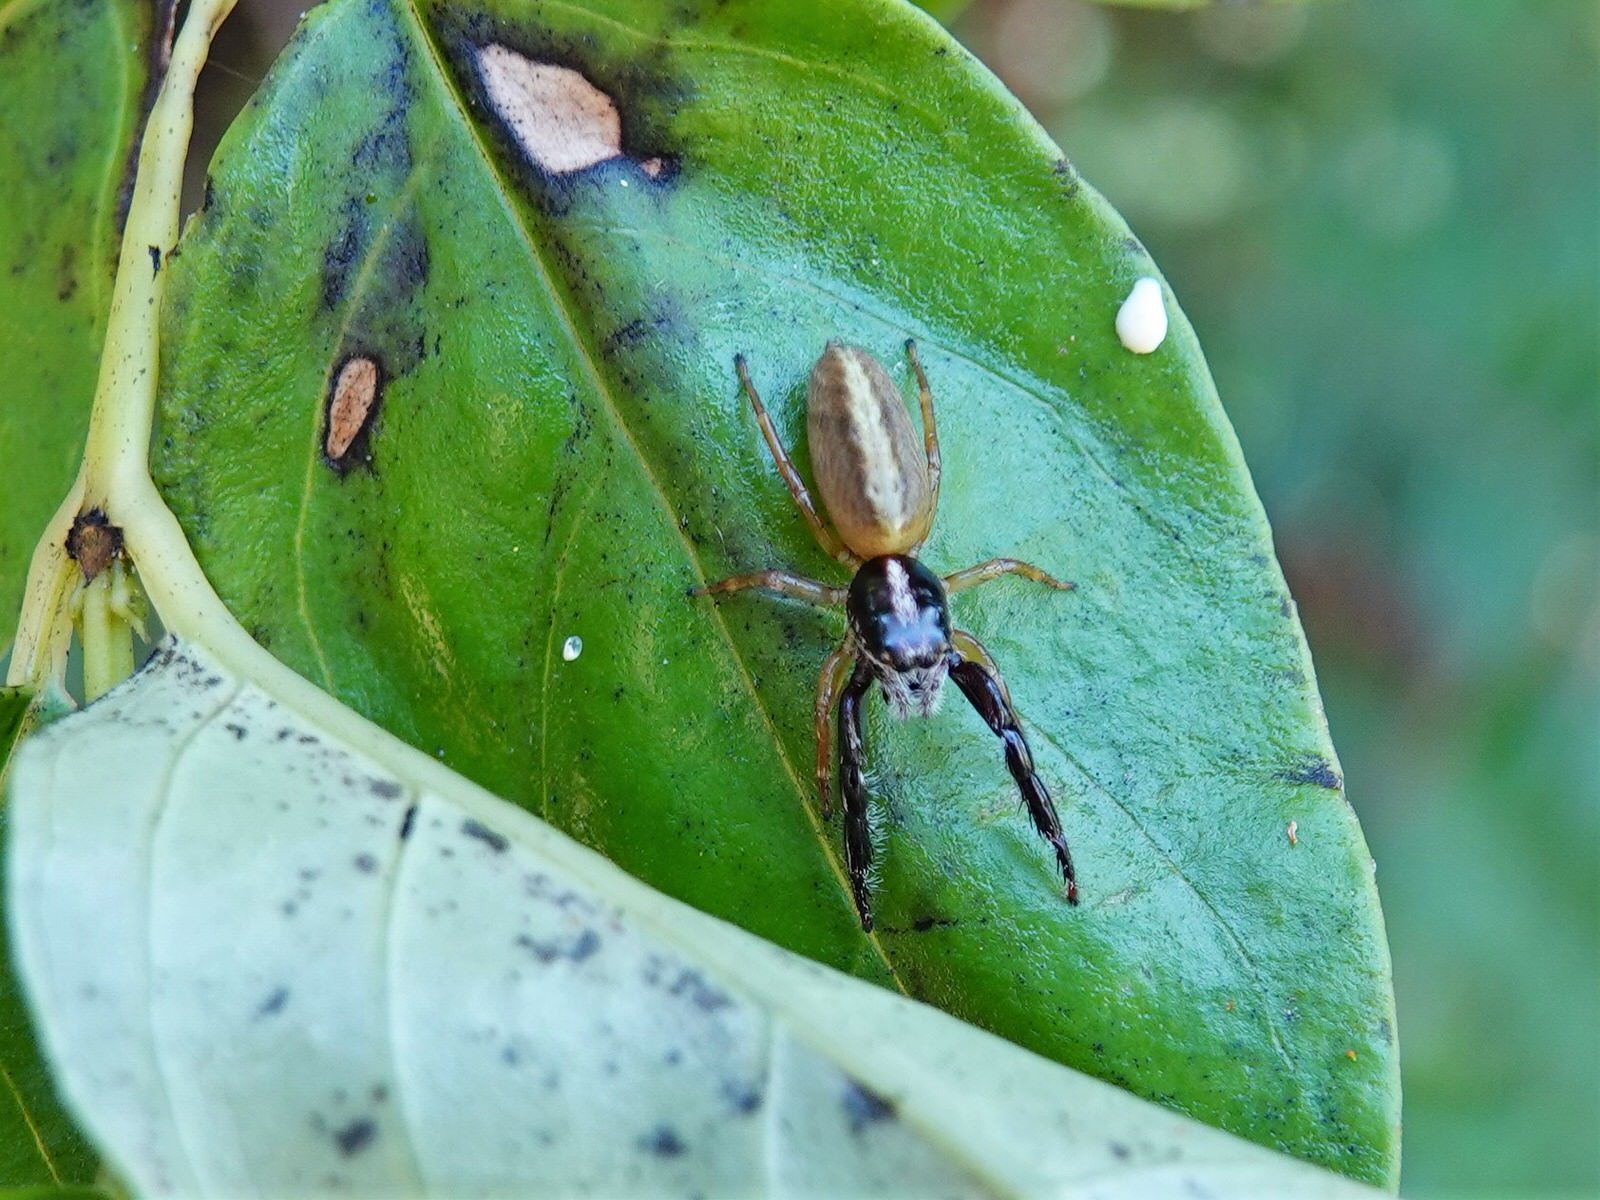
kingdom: Animalia
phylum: Arthropoda
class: Arachnida
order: Araneae
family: Salticidae
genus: Trite
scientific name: Trite planiceps
